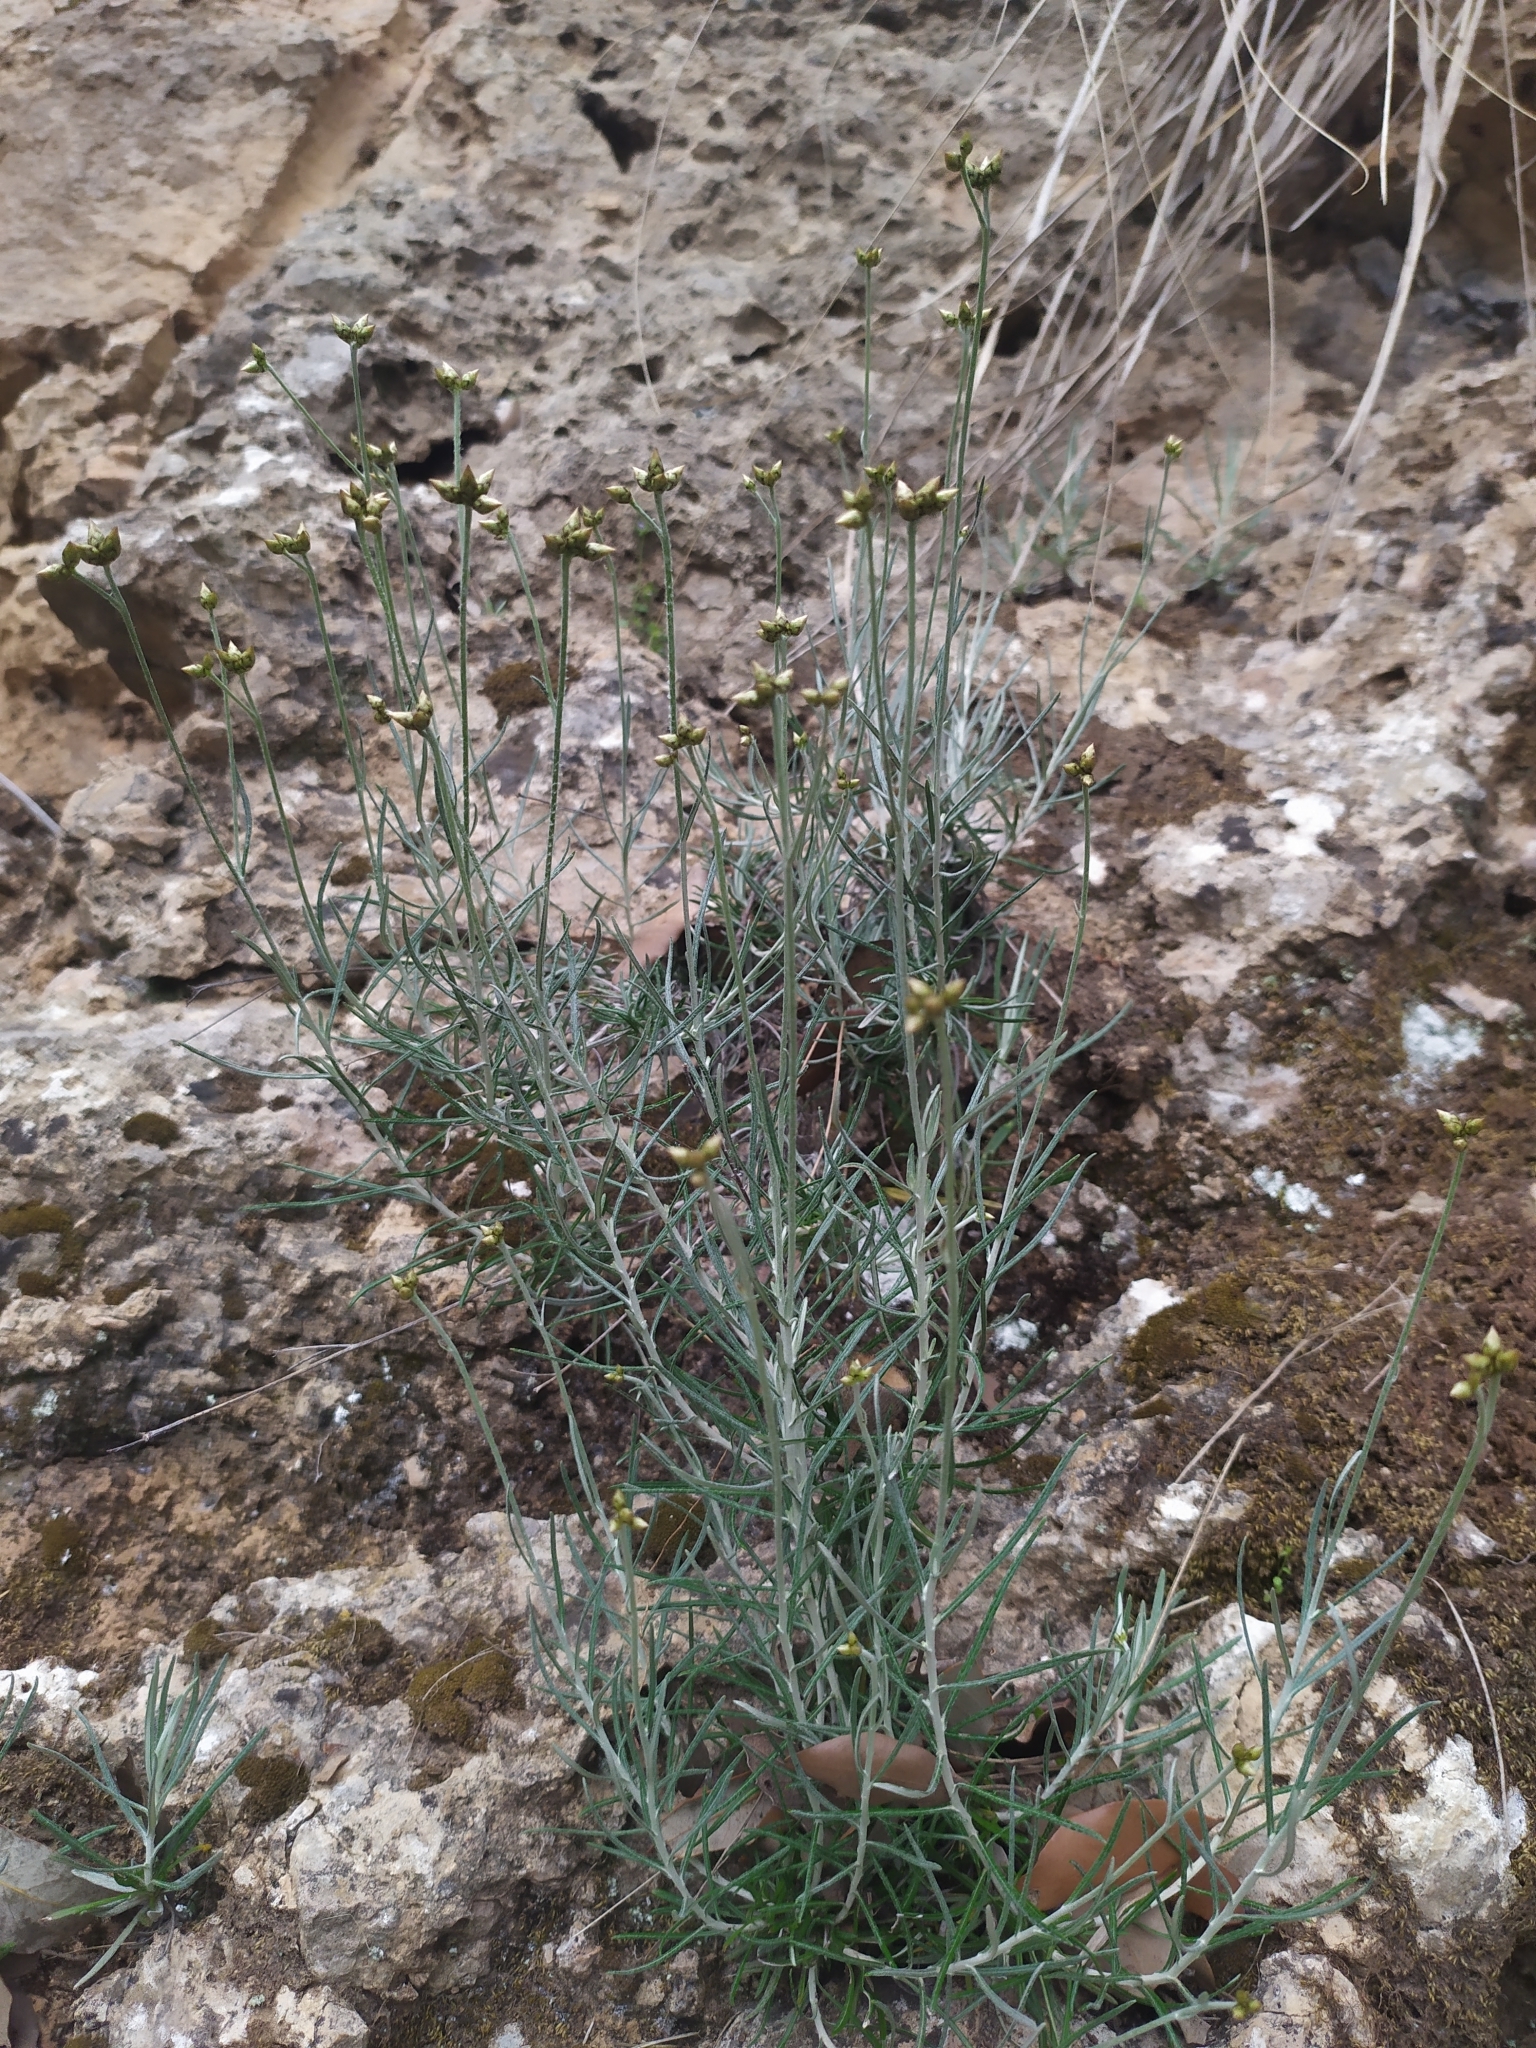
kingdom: Plantae
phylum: Tracheophyta
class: Magnoliopsida
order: Asterales
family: Asteraceae
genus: Phagnalon
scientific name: Phagnalon sordidum
